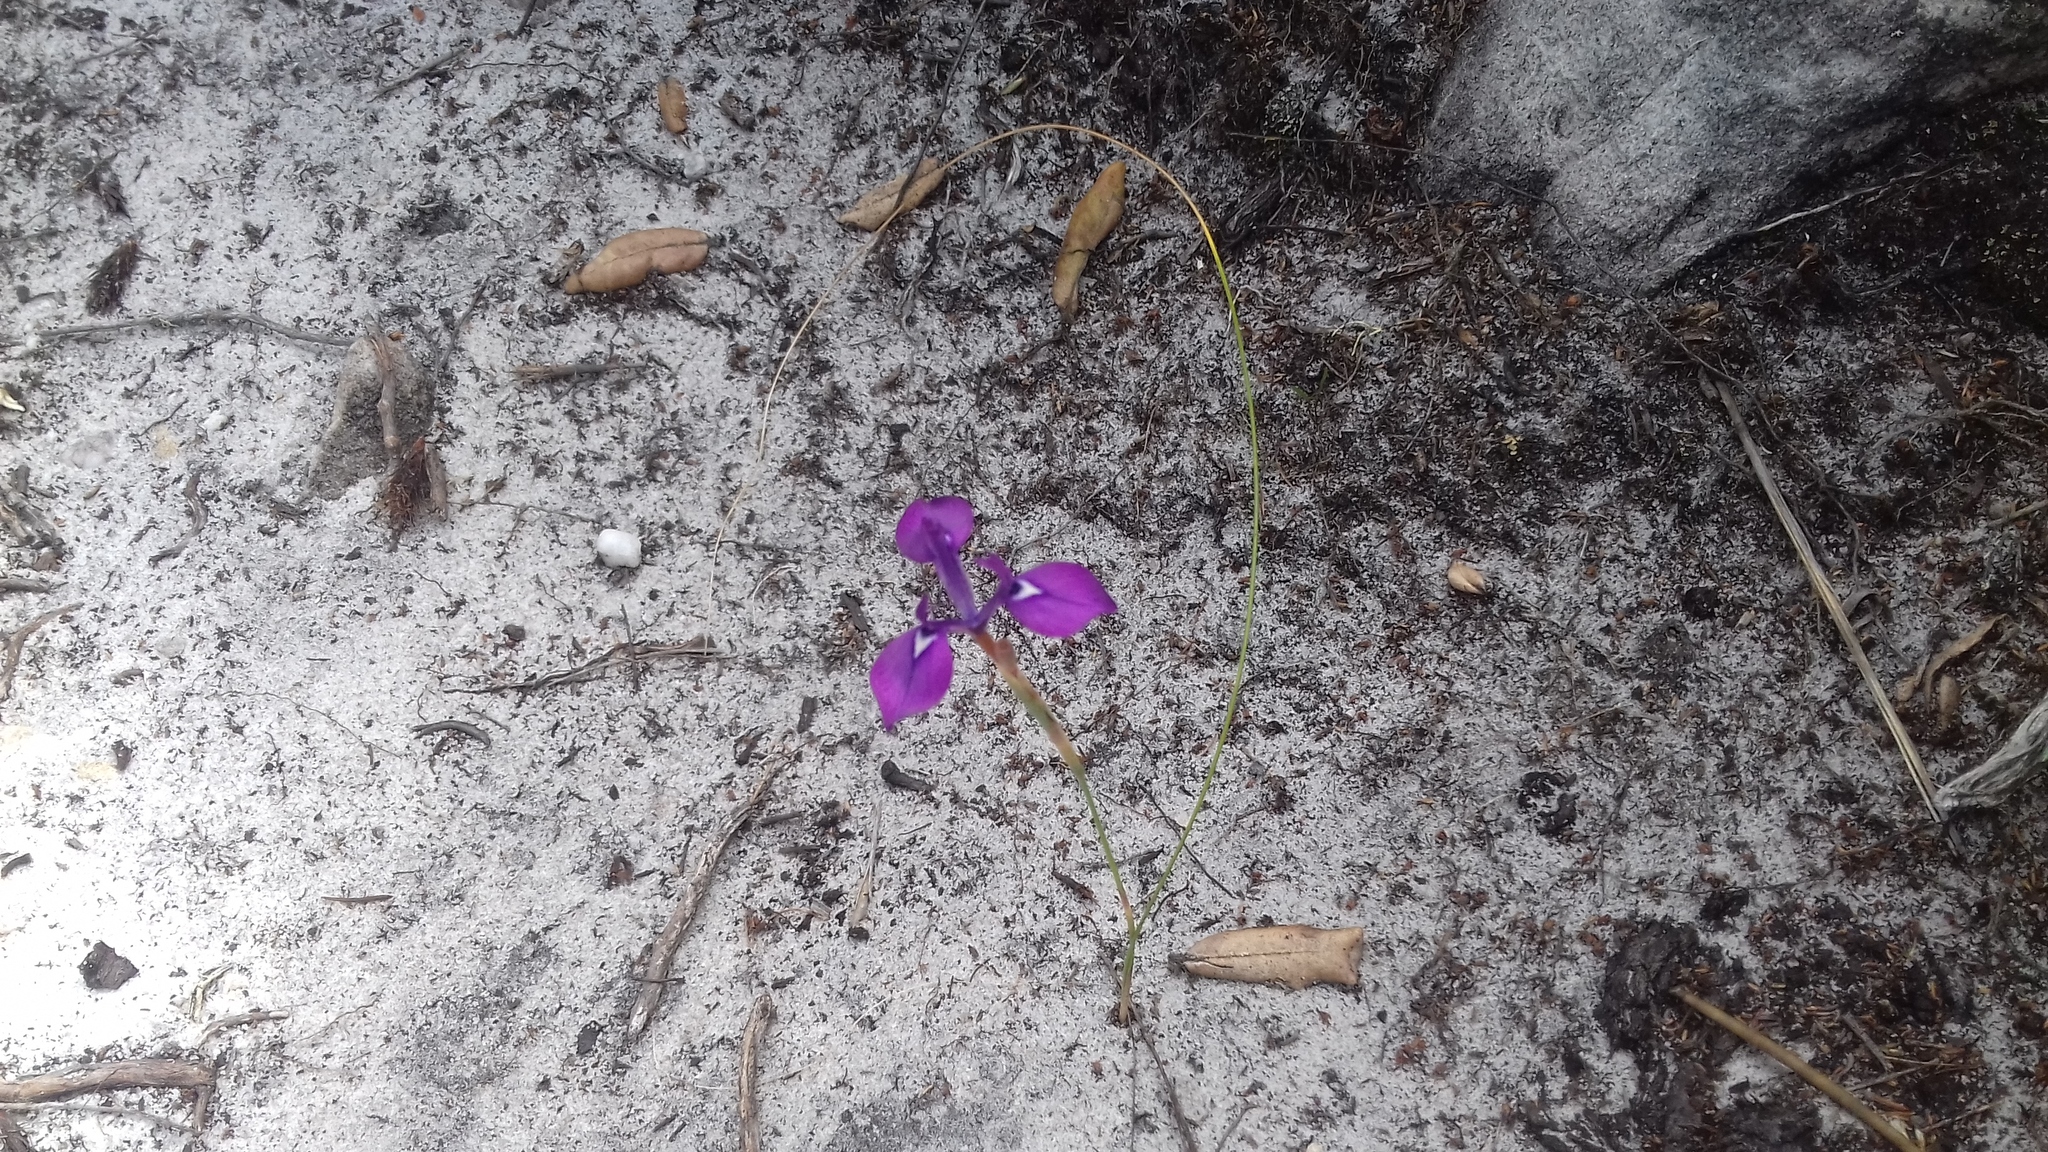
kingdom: Plantae
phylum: Tracheophyta
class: Liliopsida
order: Asparagales
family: Iridaceae
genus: Moraea
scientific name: Moraea tripetala
